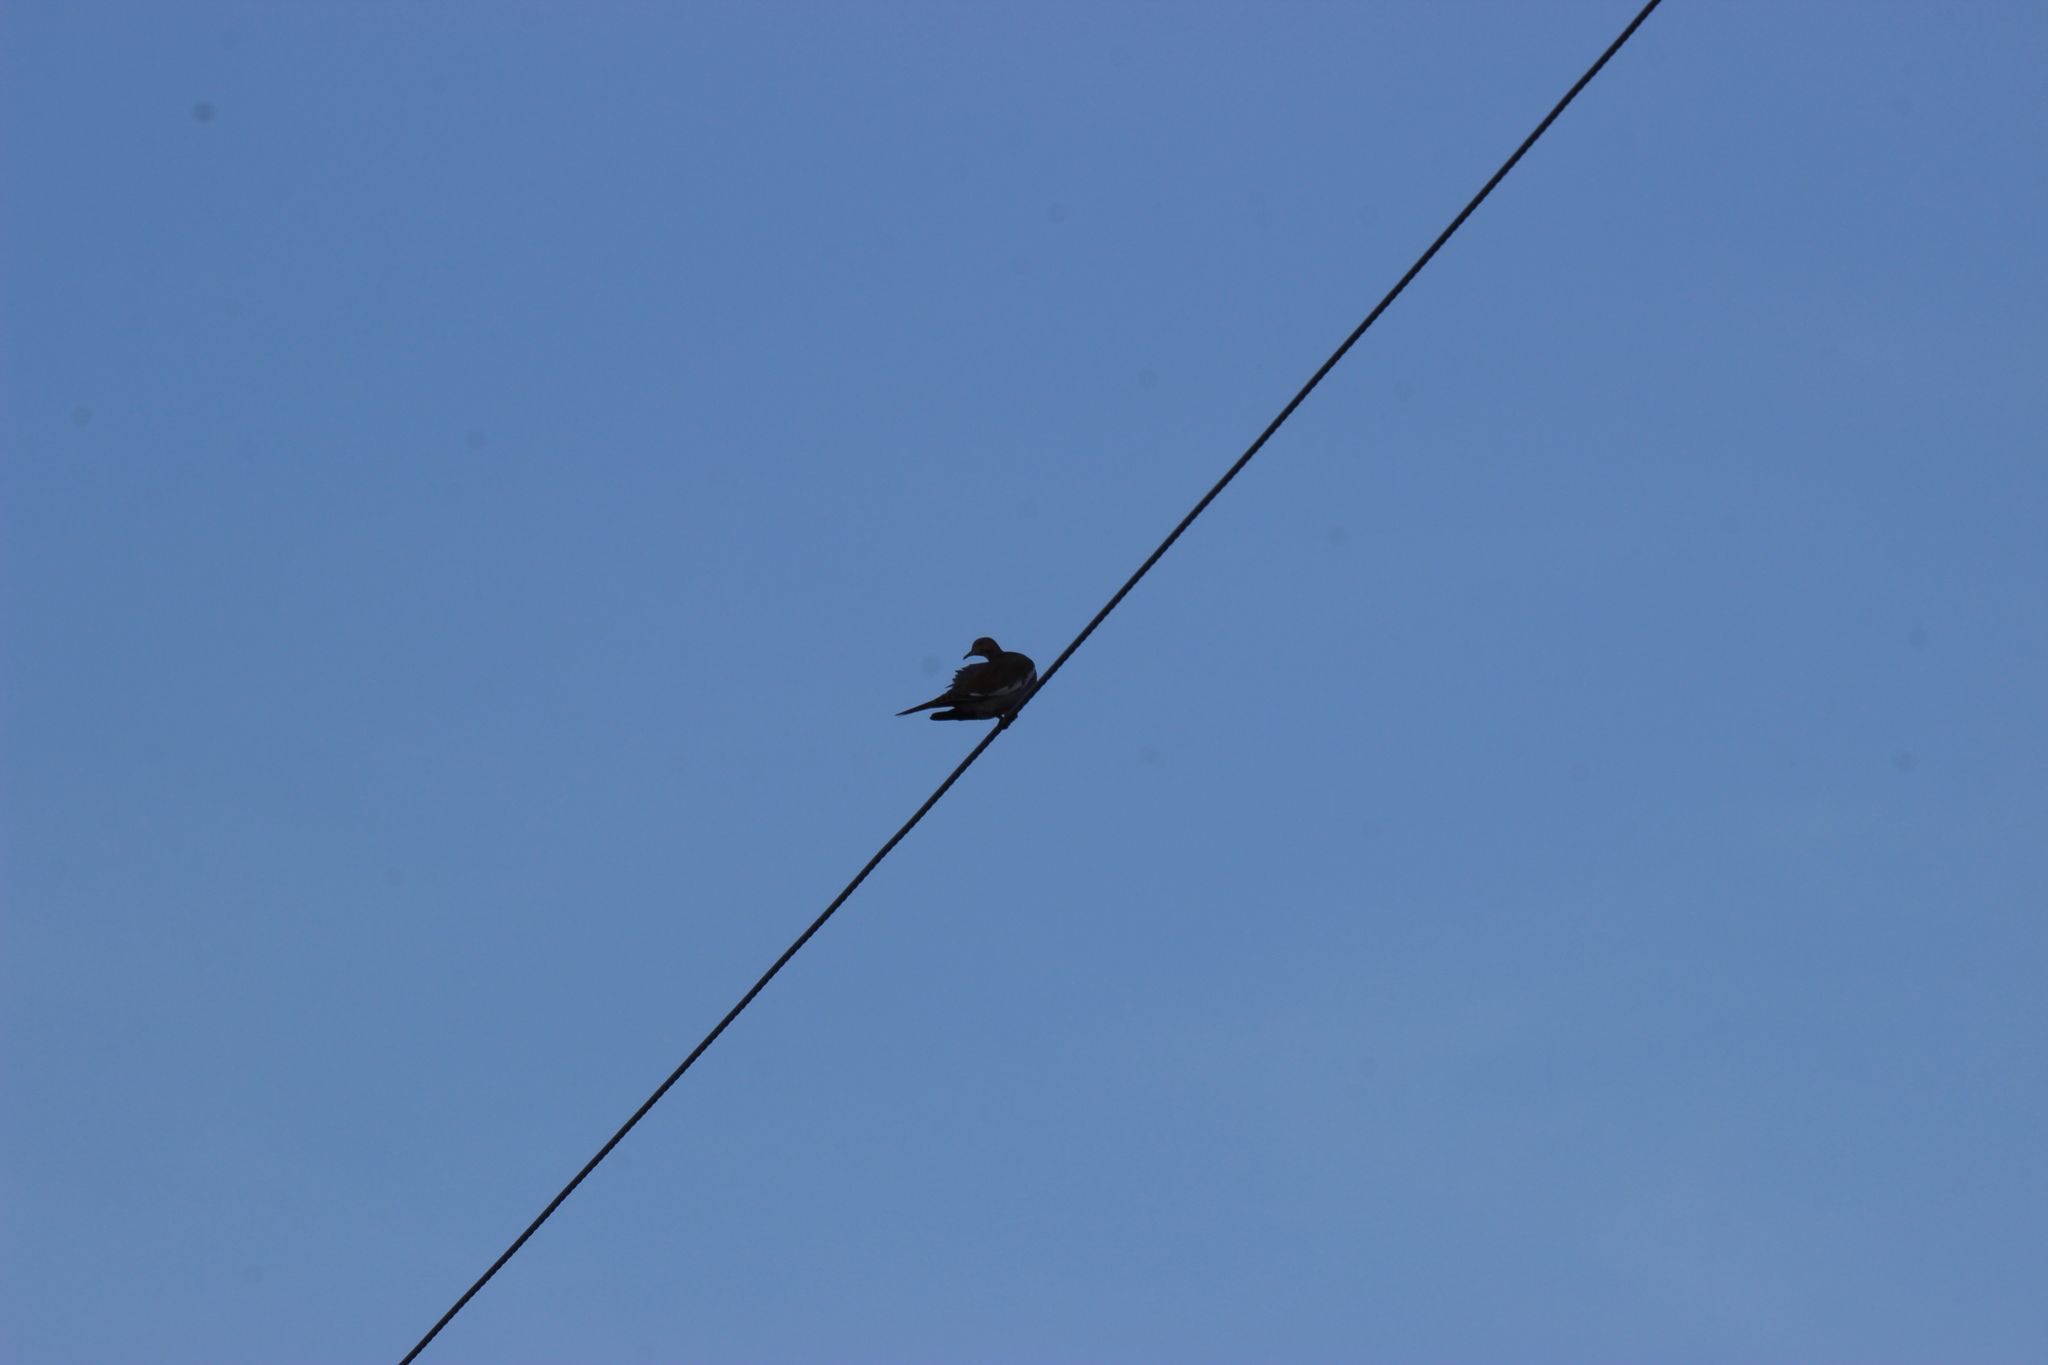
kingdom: Animalia
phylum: Chordata
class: Aves
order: Columbiformes
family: Columbidae
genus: Zenaida
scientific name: Zenaida asiatica
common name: White-winged dove
